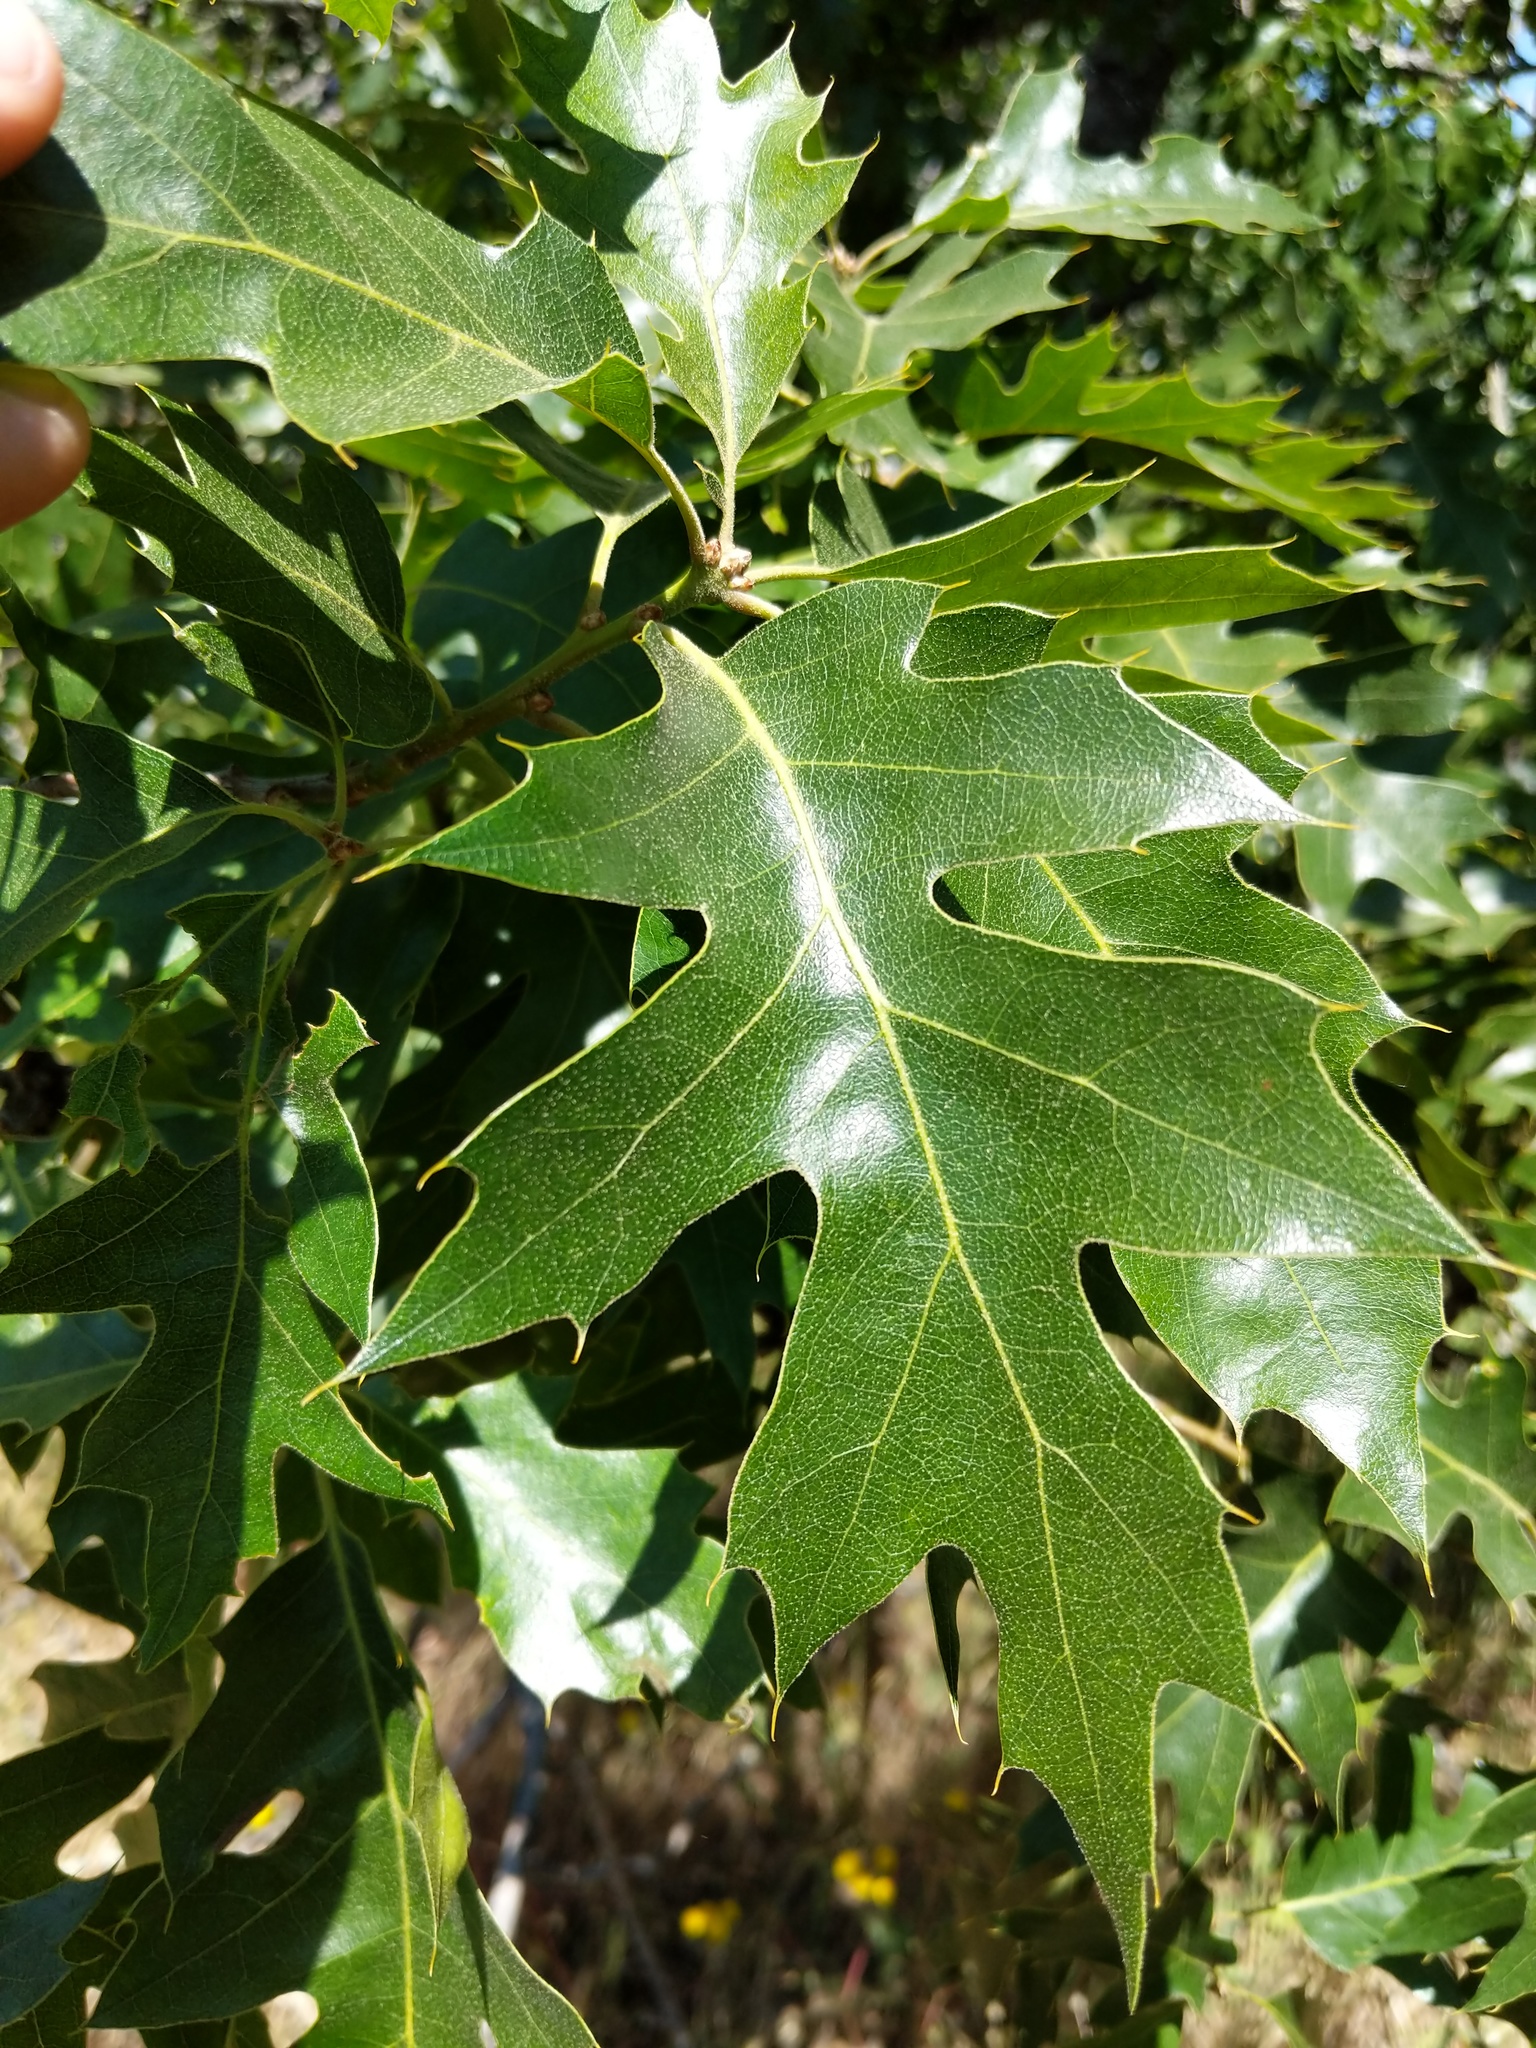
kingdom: Plantae
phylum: Tracheophyta
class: Magnoliopsida
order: Fagales
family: Fagaceae
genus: Quercus
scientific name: Quercus kelloggii
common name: California black oak
